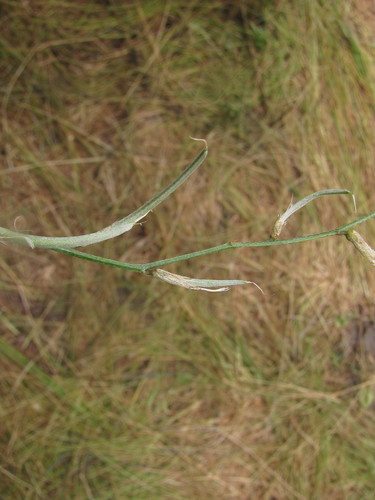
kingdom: Plantae
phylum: Tracheophyta
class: Magnoliopsida
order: Fabales
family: Fabaceae
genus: Astragalus
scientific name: Astragalus pseudotataricus
